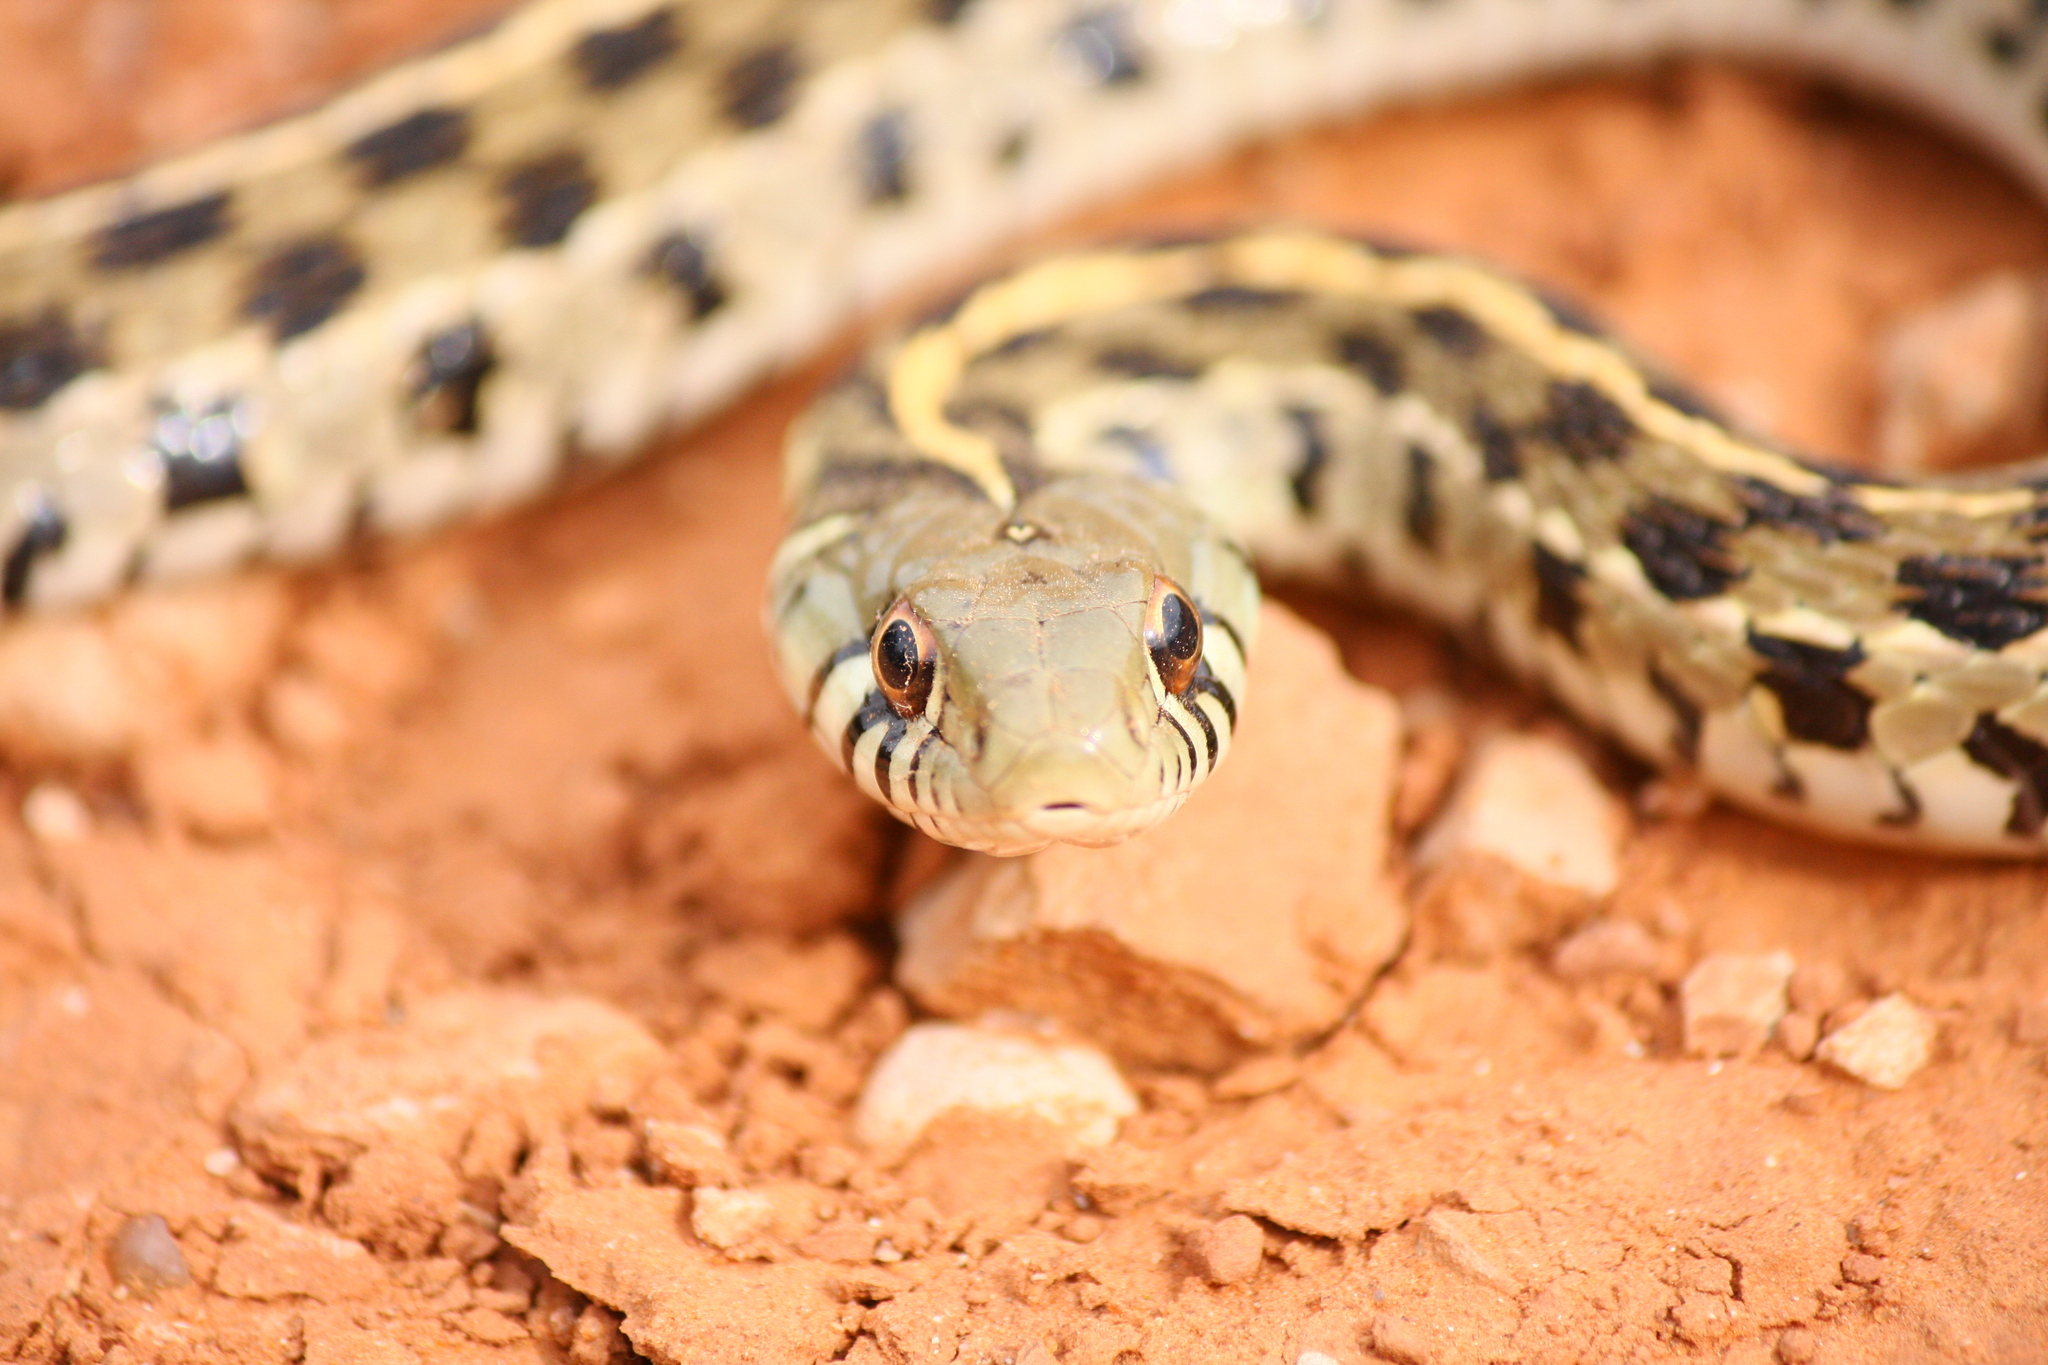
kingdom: Animalia
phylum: Chordata
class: Squamata
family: Colubridae
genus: Thamnophis
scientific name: Thamnophis marcianus
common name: Checkered garter snake
